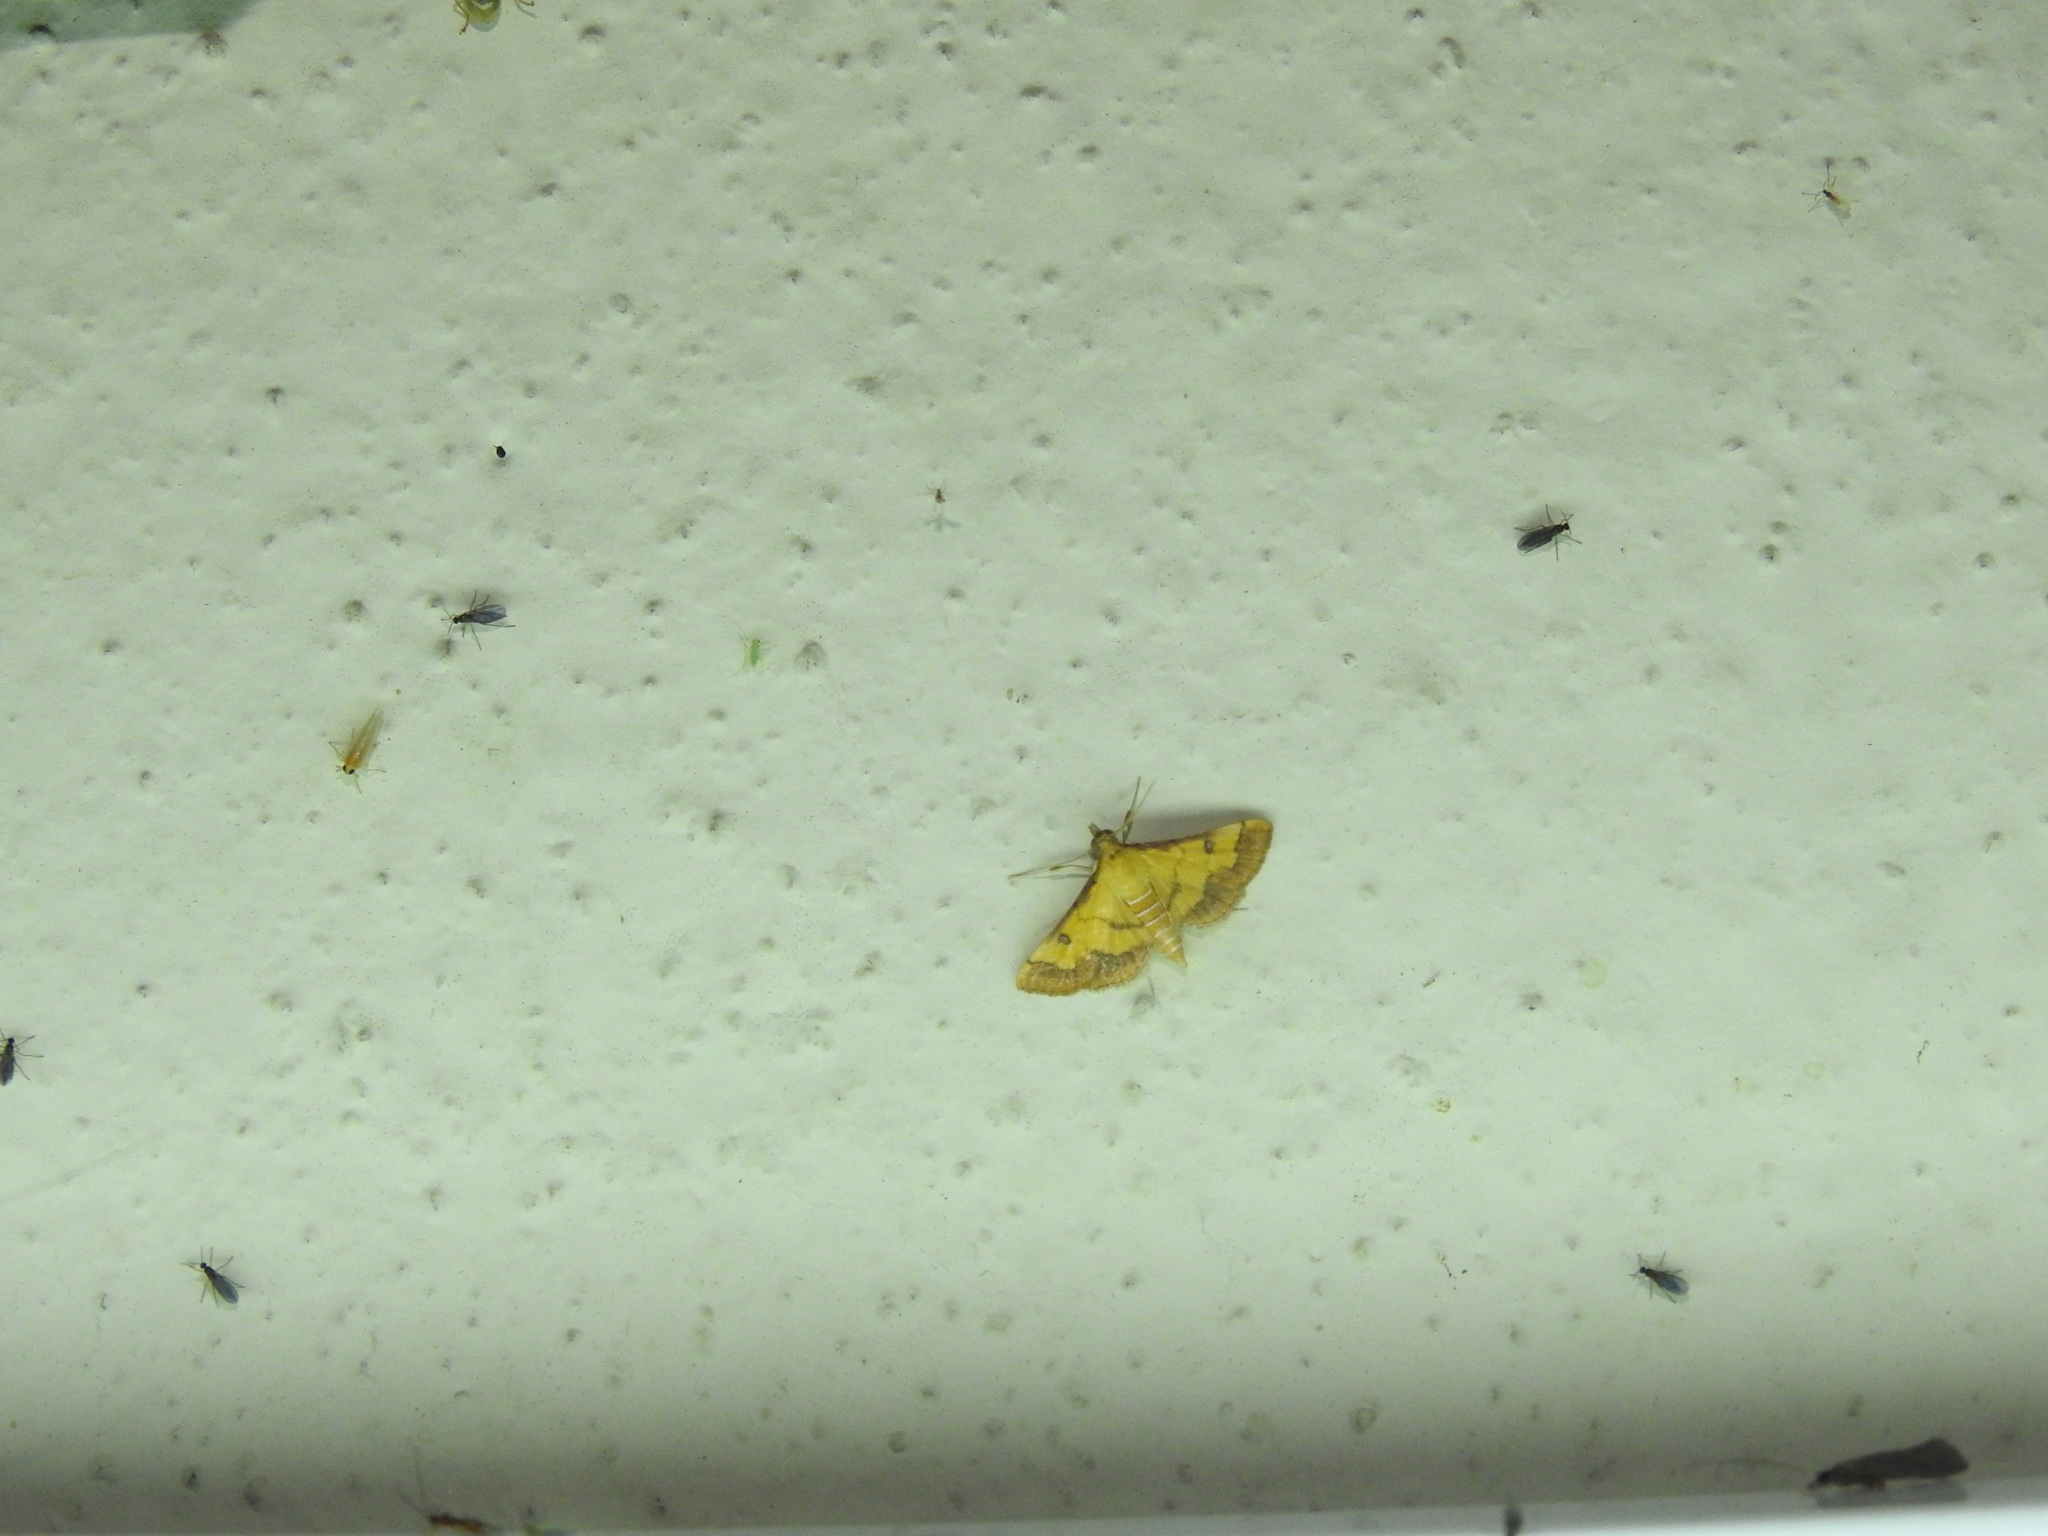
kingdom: Animalia
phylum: Arthropoda
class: Insecta
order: Lepidoptera
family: Crambidae
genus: Ischnurges
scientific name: Ischnurges luteomarginalis
